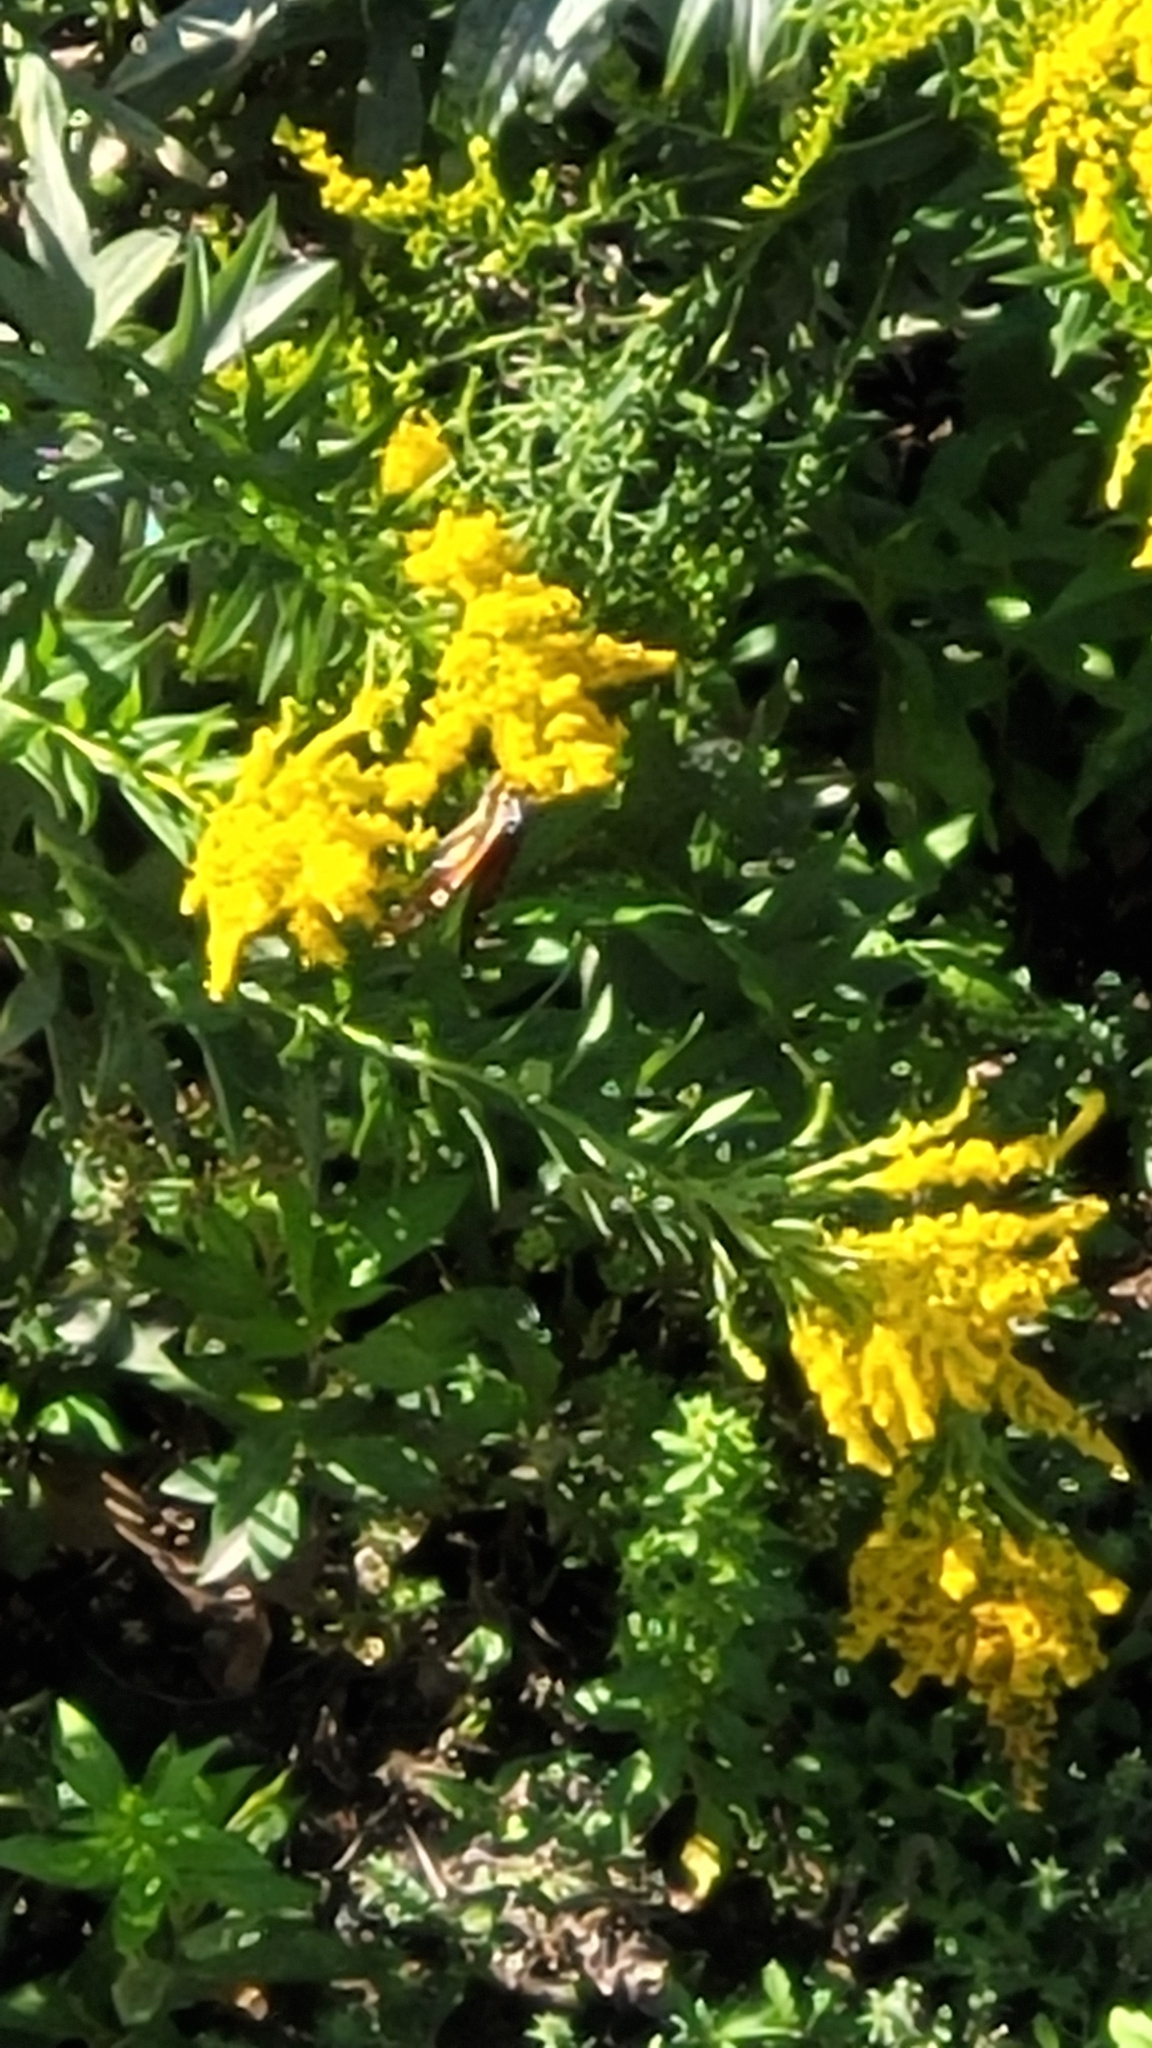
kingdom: Animalia
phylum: Arthropoda
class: Insecta
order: Lepidoptera
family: Nymphalidae
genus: Danaus
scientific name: Danaus plexippus
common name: Monarch
